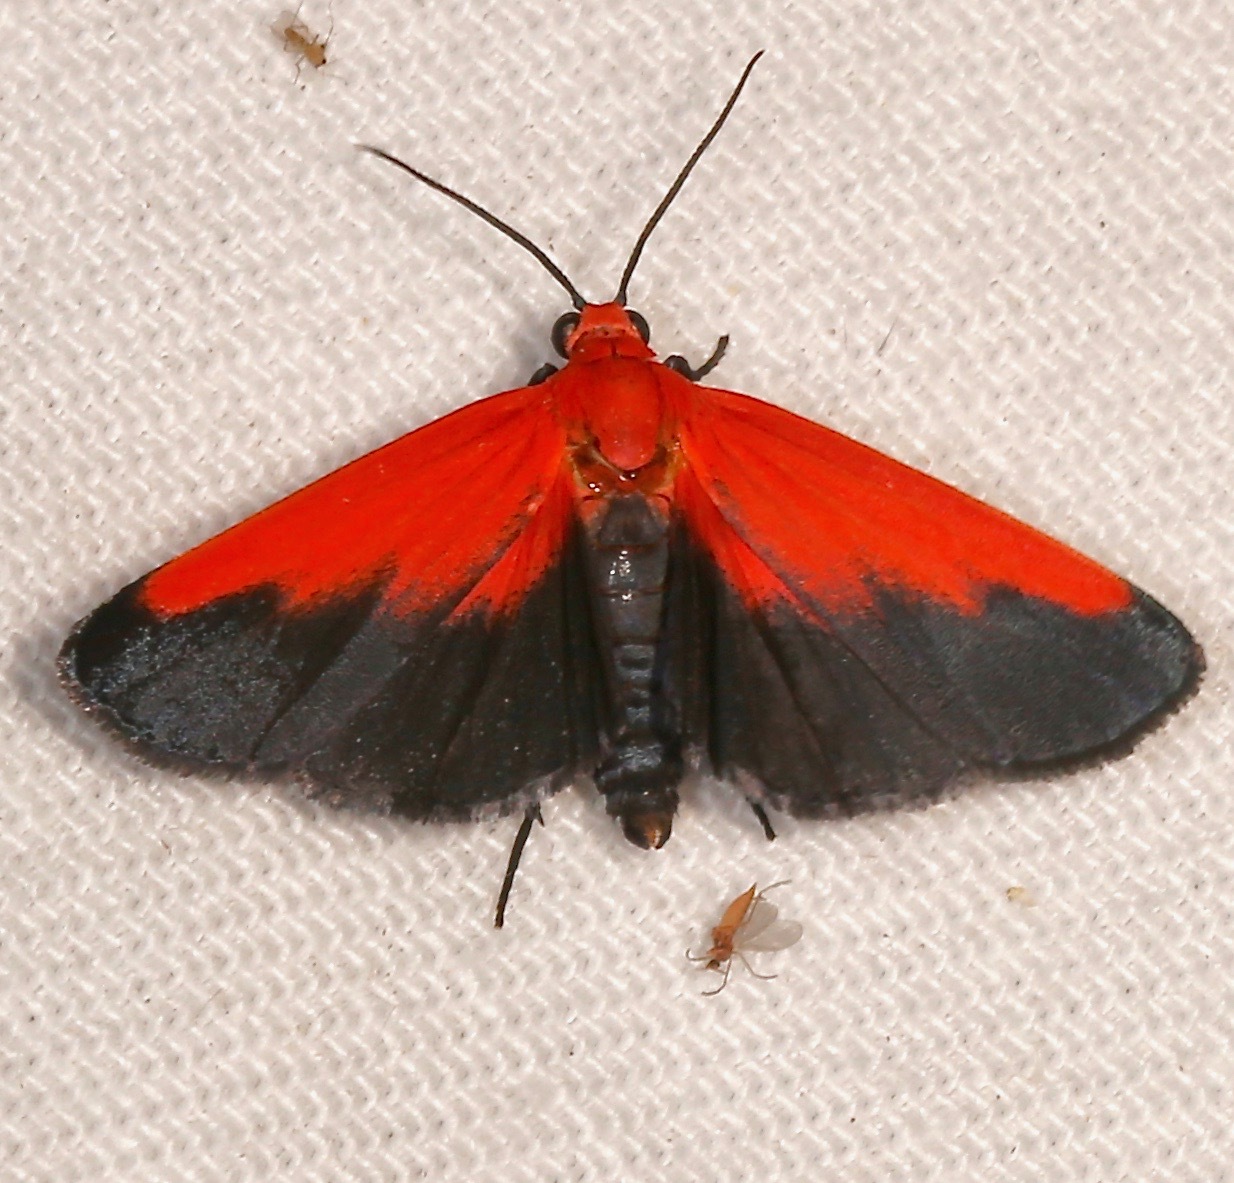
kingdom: Animalia
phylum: Arthropoda
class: Insecta
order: Lepidoptera
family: Erebidae
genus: Ptychoglene
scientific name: Ptychoglene coccinea
